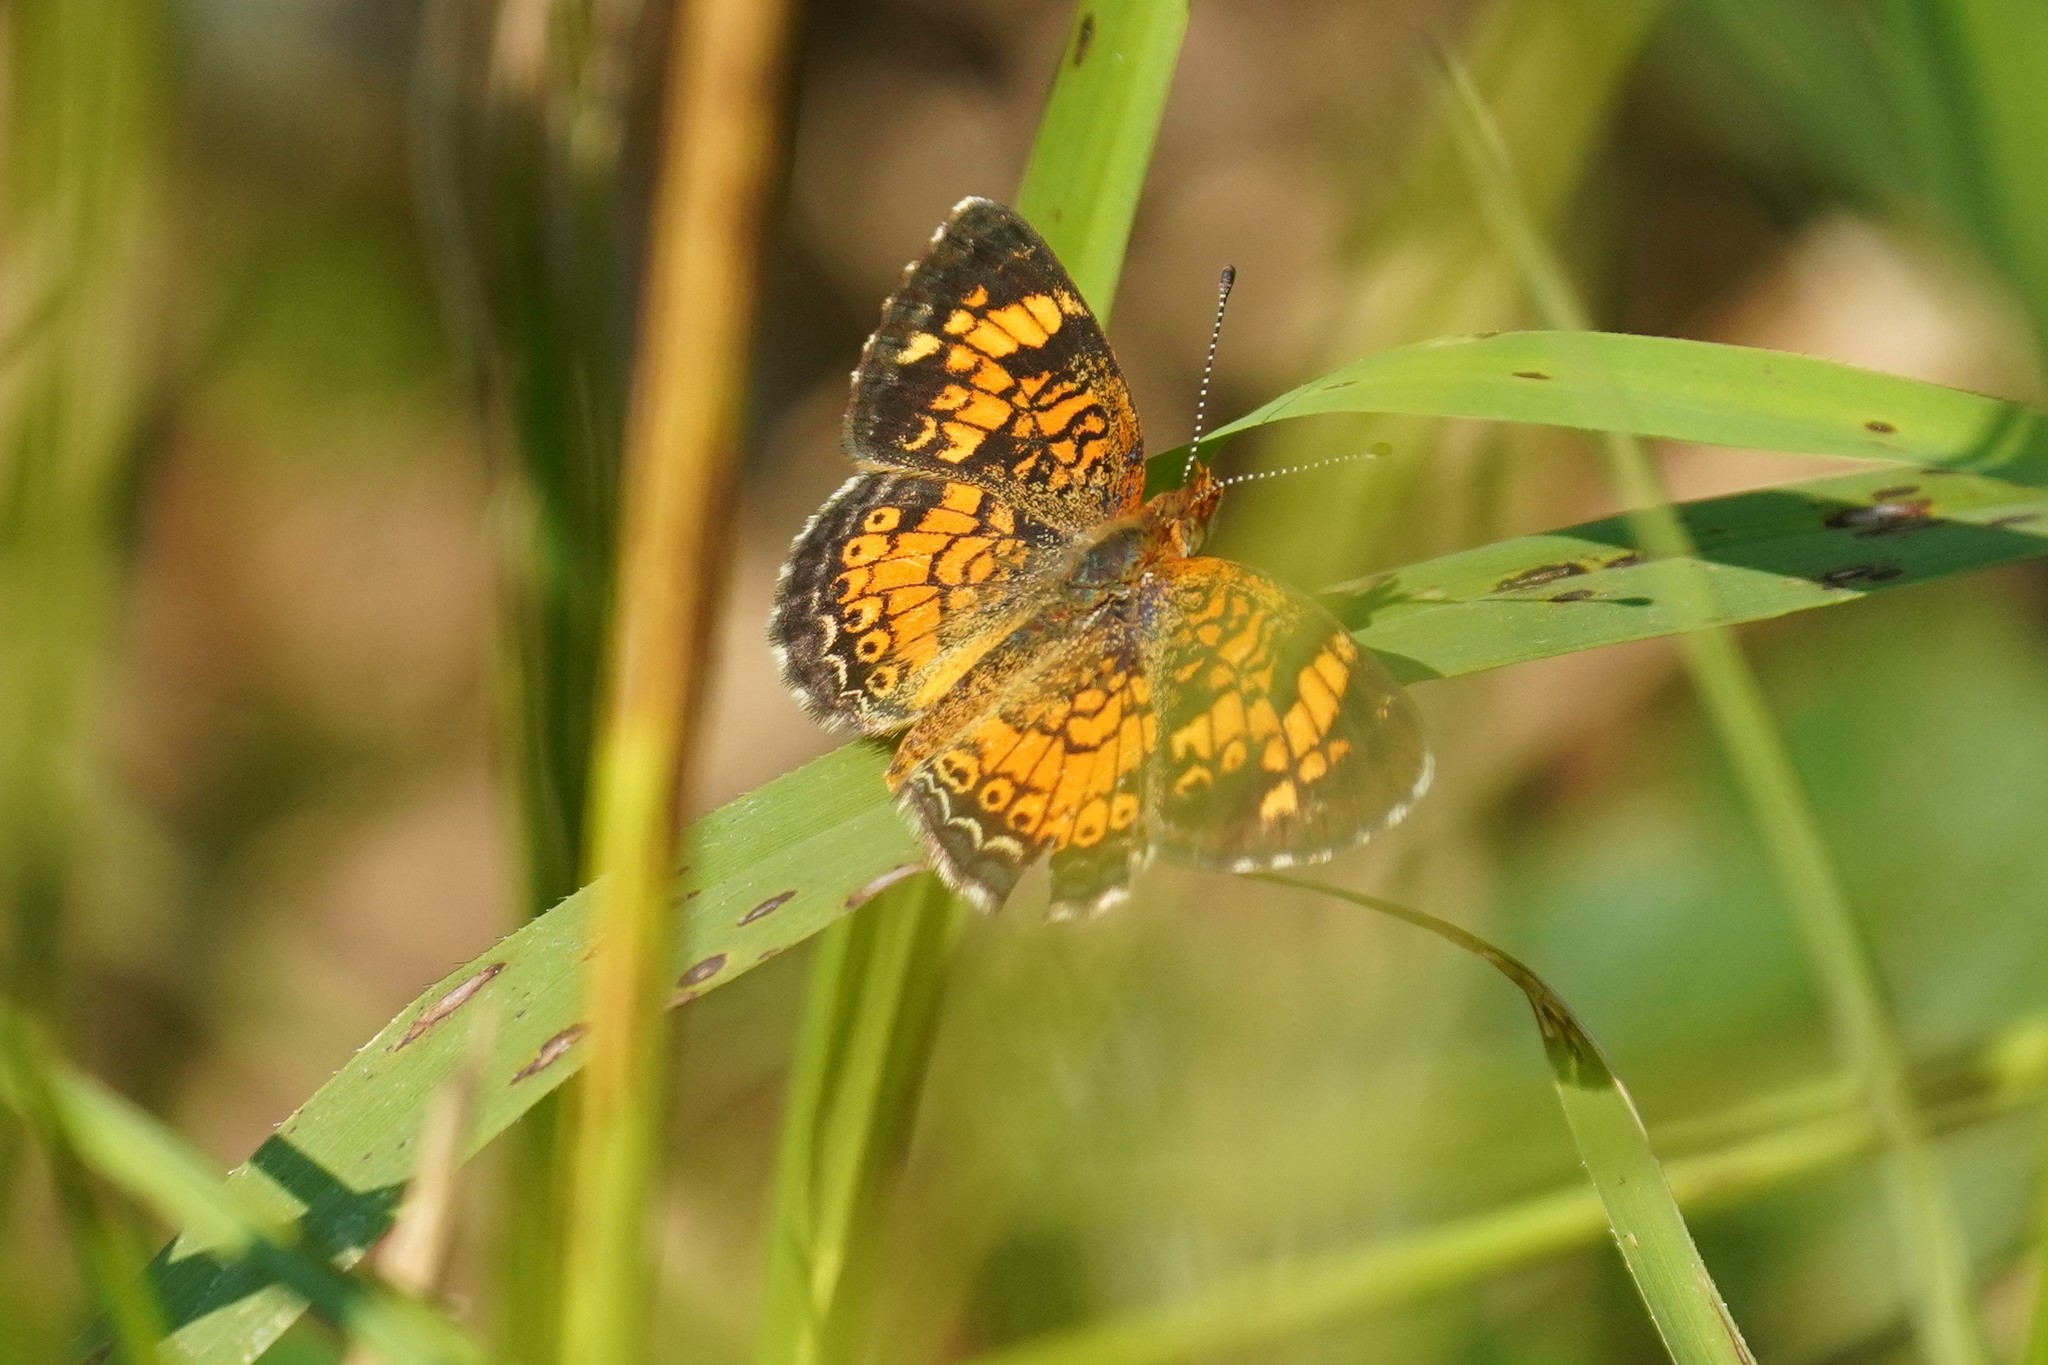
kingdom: Animalia
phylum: Arthropoda
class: Insecta
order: Lepidoptera
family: Nymphalidae
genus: Phyciodes
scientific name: Phyciodes tharos
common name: Pearl crescent
